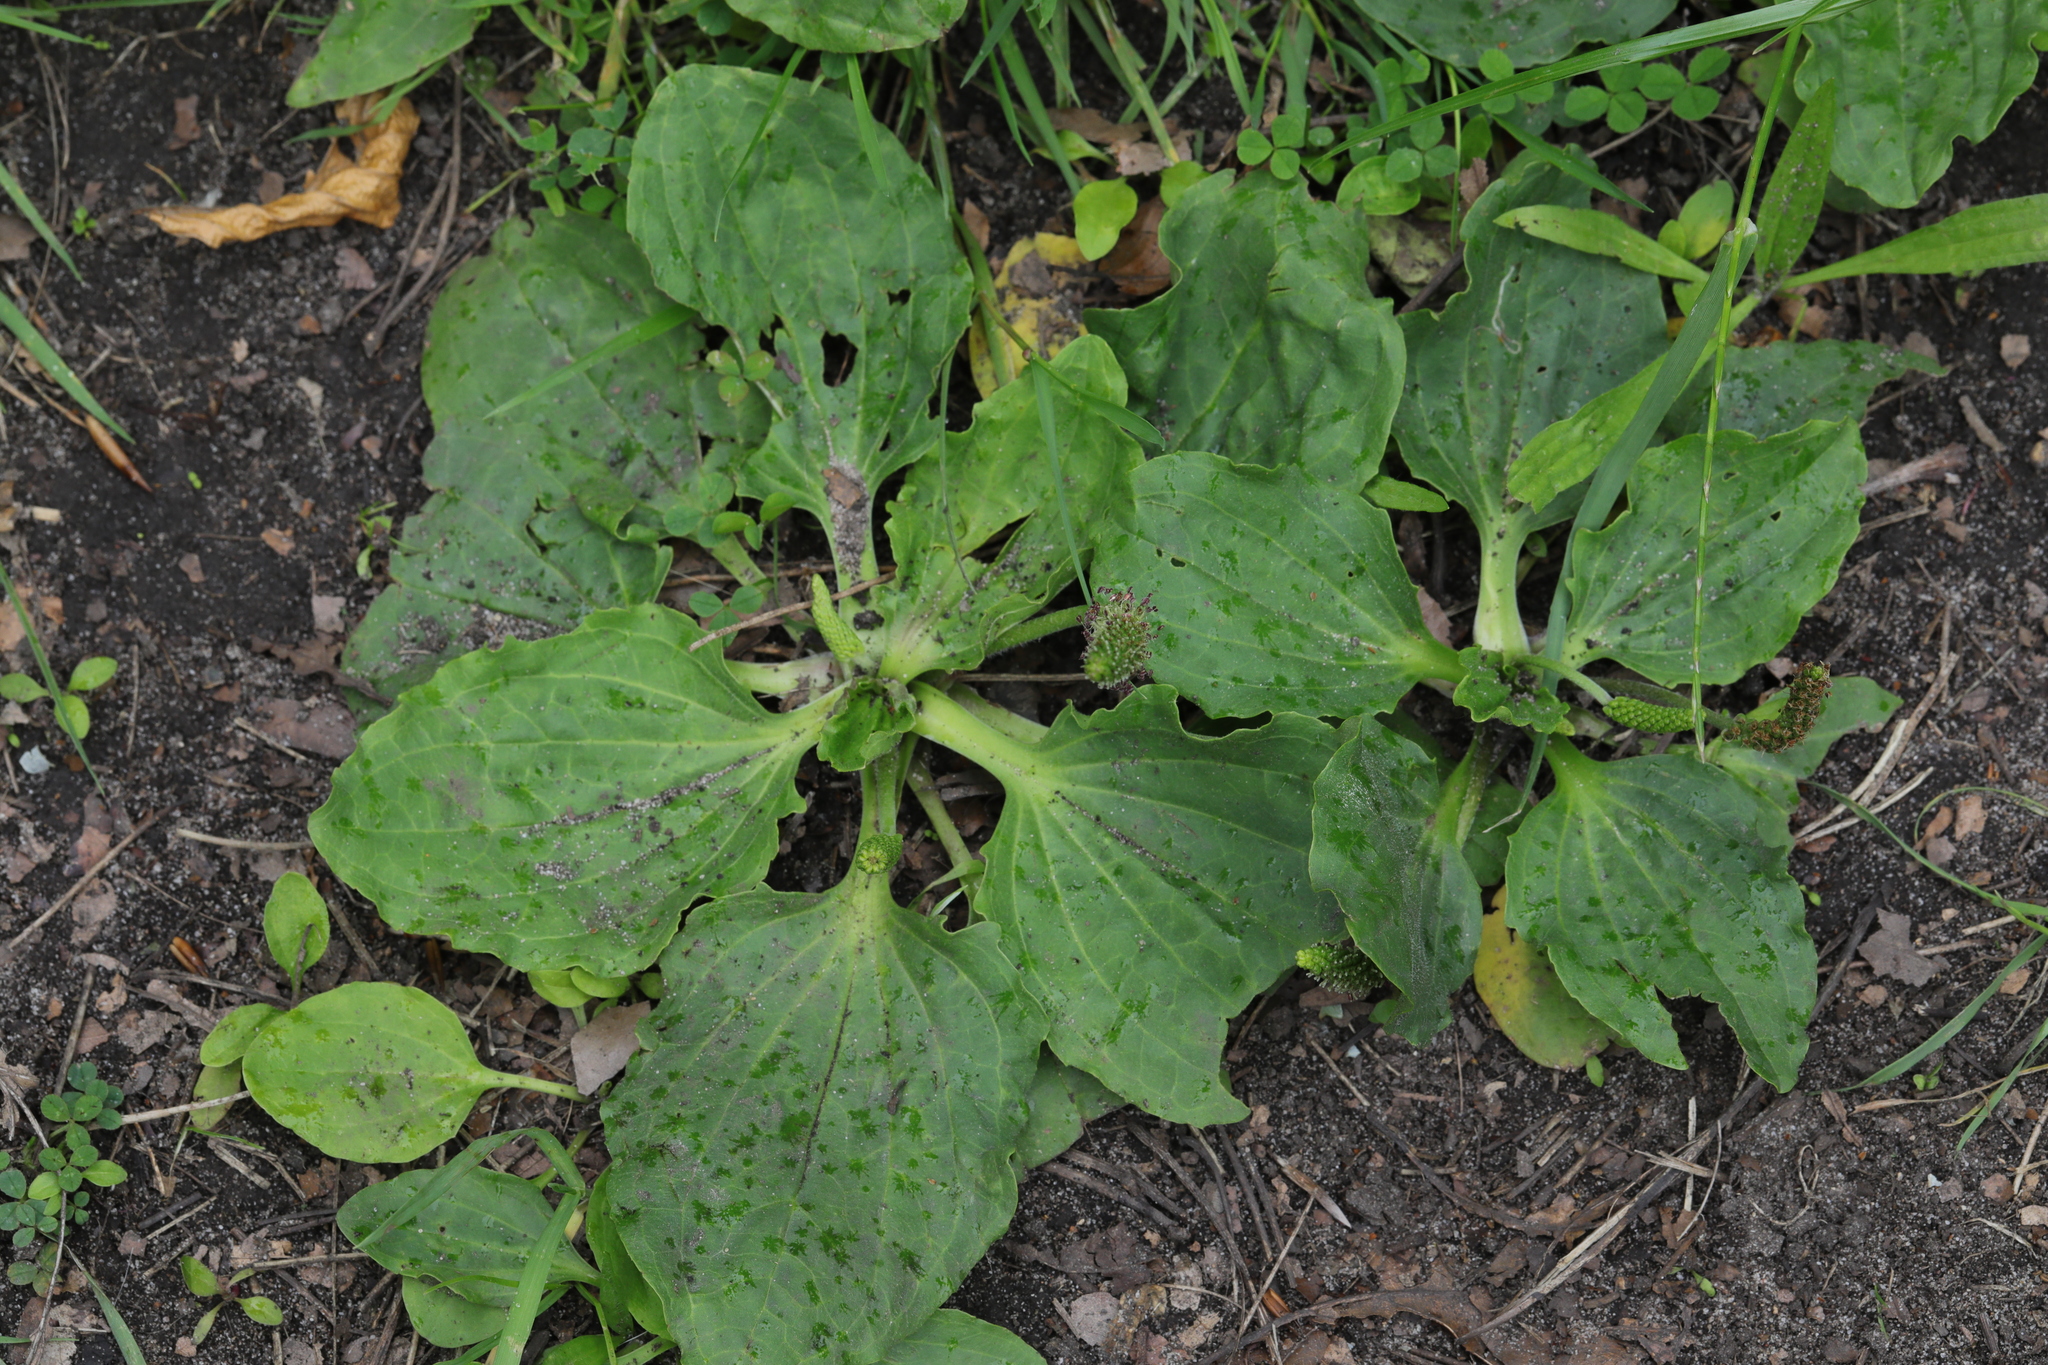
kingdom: Plantae
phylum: Tracheophyta
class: Magnoliopsida
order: Lamiales
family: Plantaginaceae
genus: Plantago
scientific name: Plantago major
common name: Common plantain
